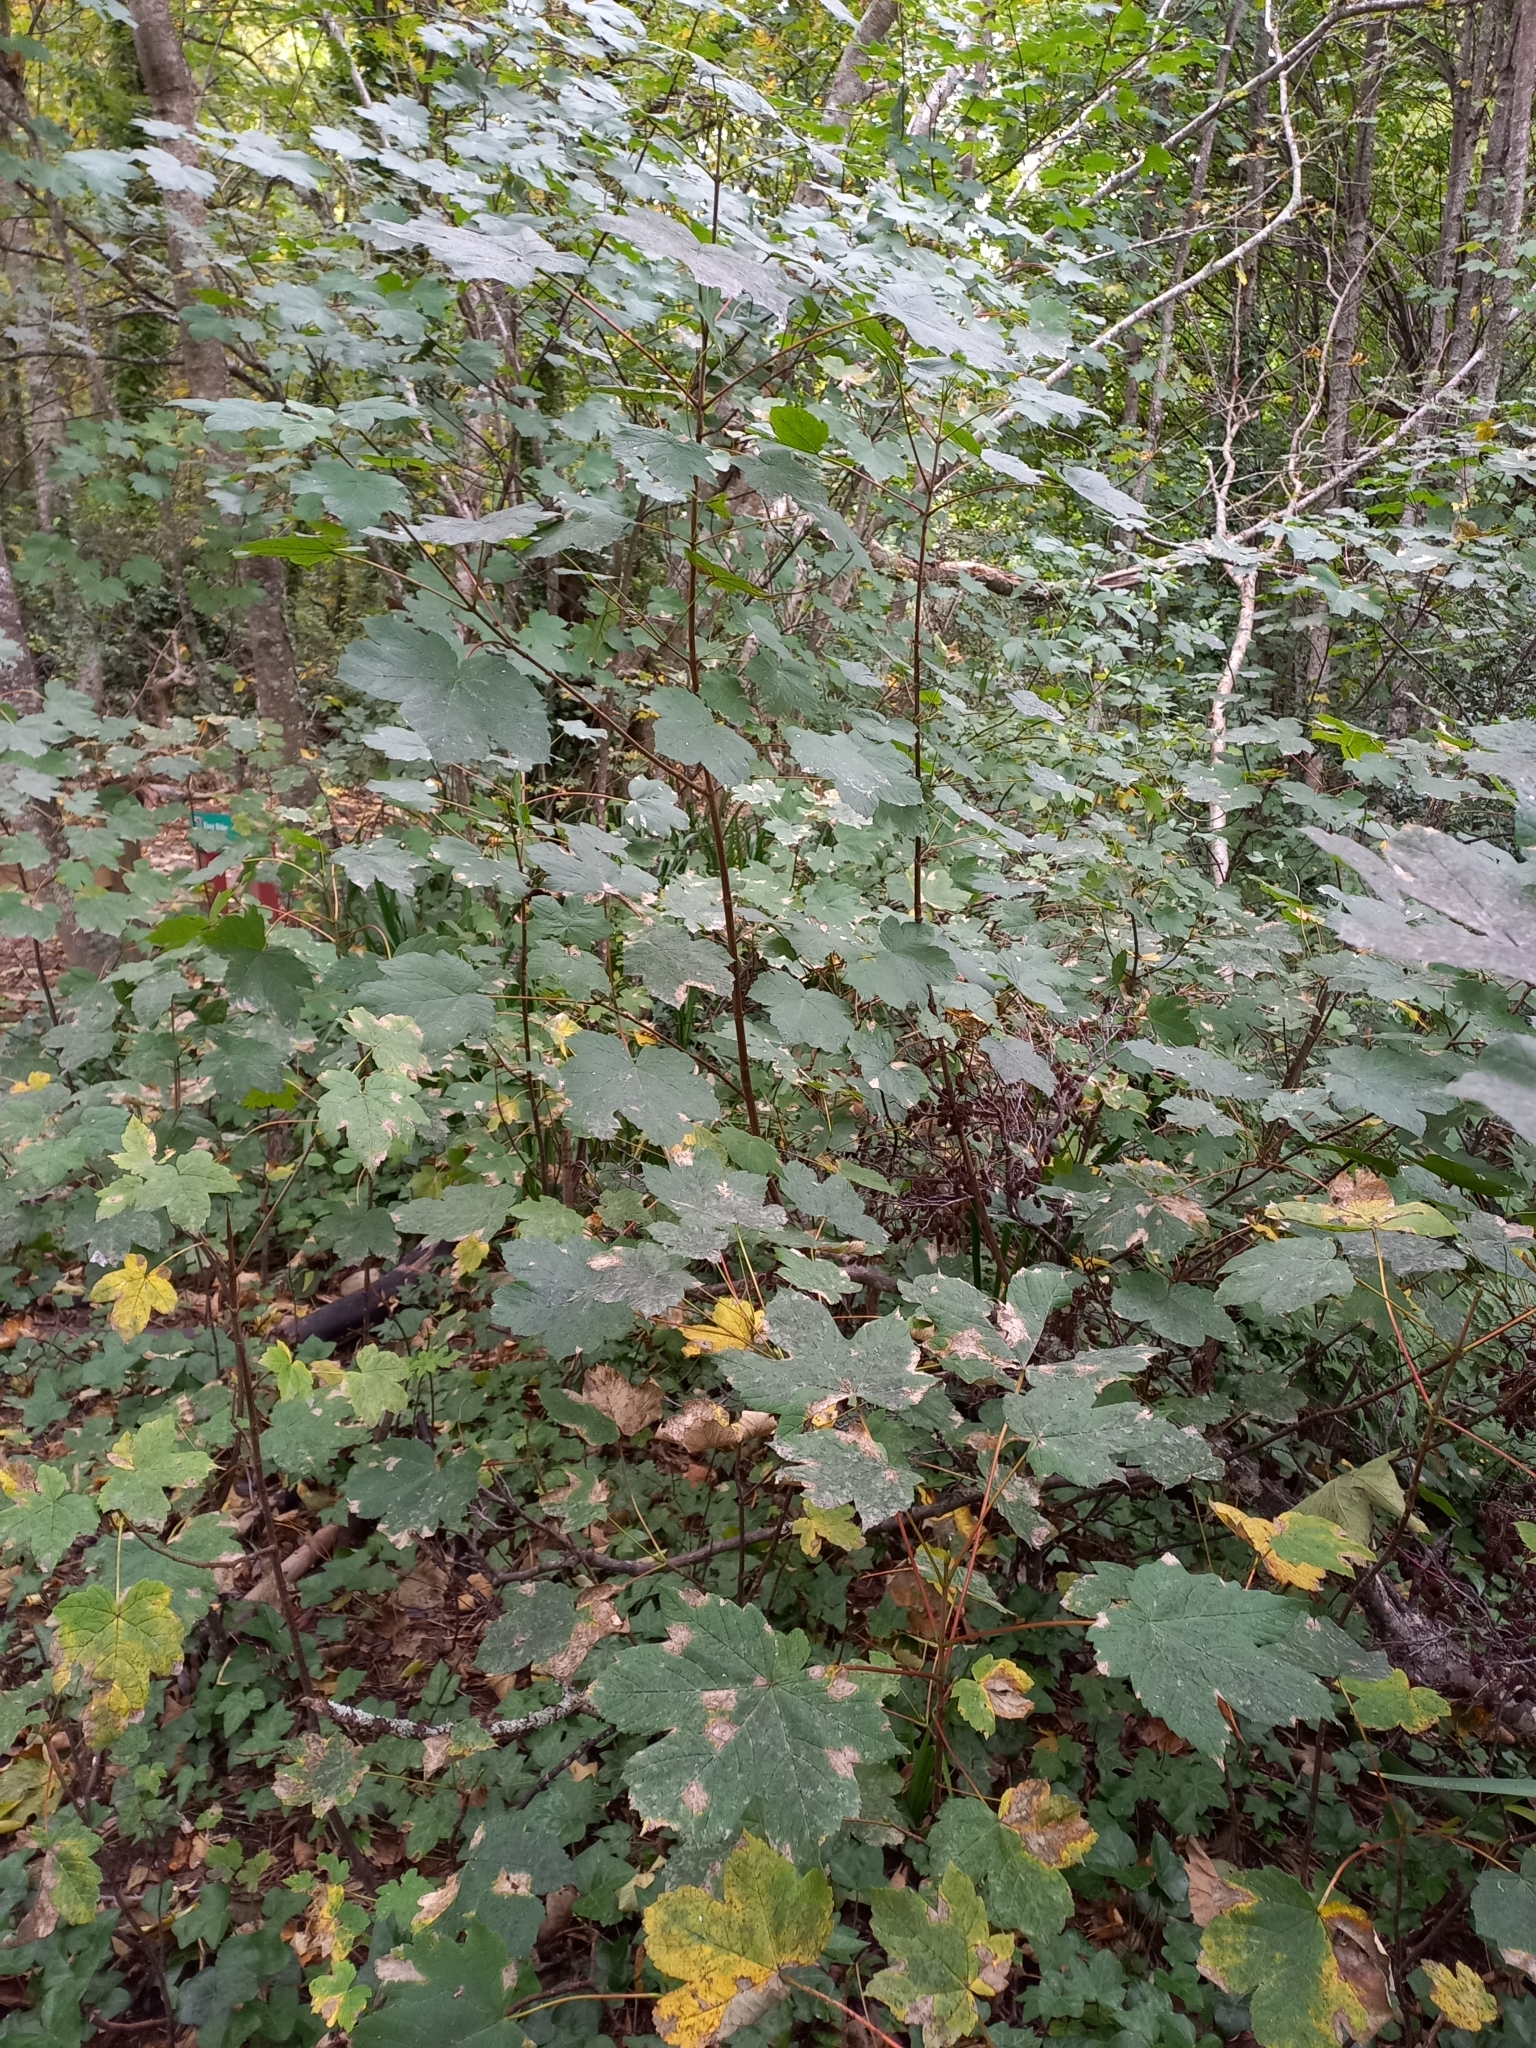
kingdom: Plantae
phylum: Tracheophyta
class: Magnoliopsida
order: Sapindales
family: Sapindaceae
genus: Acer
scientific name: Acer pseudoplatanus
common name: Sycamore
